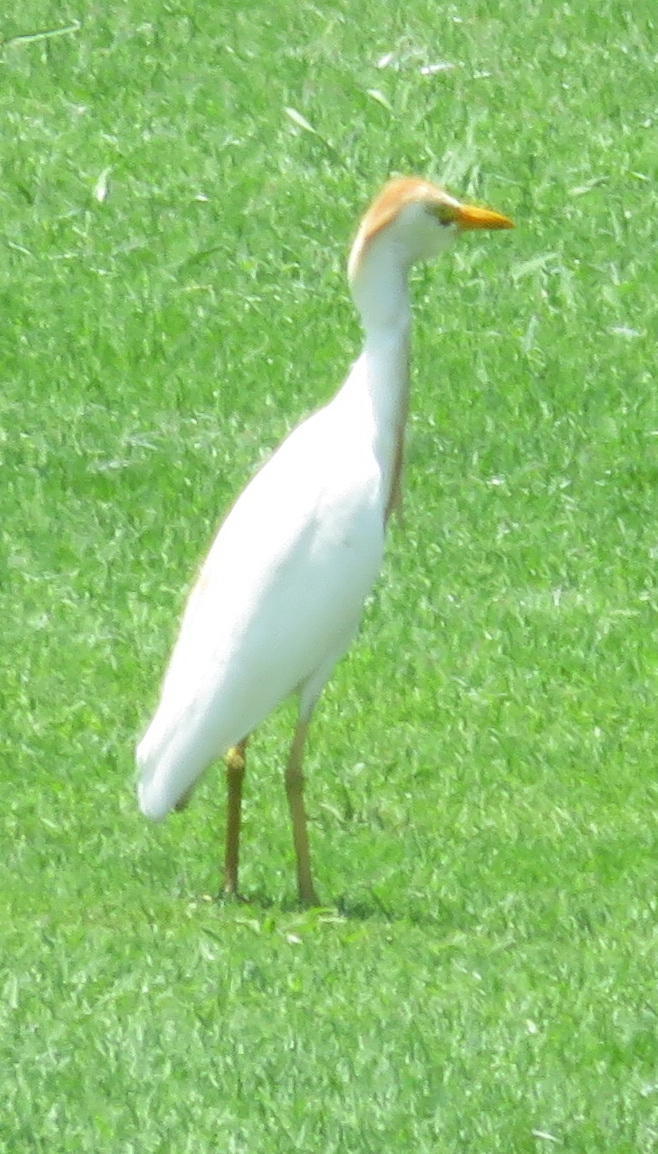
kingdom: Animalia
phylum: Chordata
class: Aves
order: Pelecaniformes
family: Ardeidae
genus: Bubulcus
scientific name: Bubulcus ibis
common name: Cattle egret
